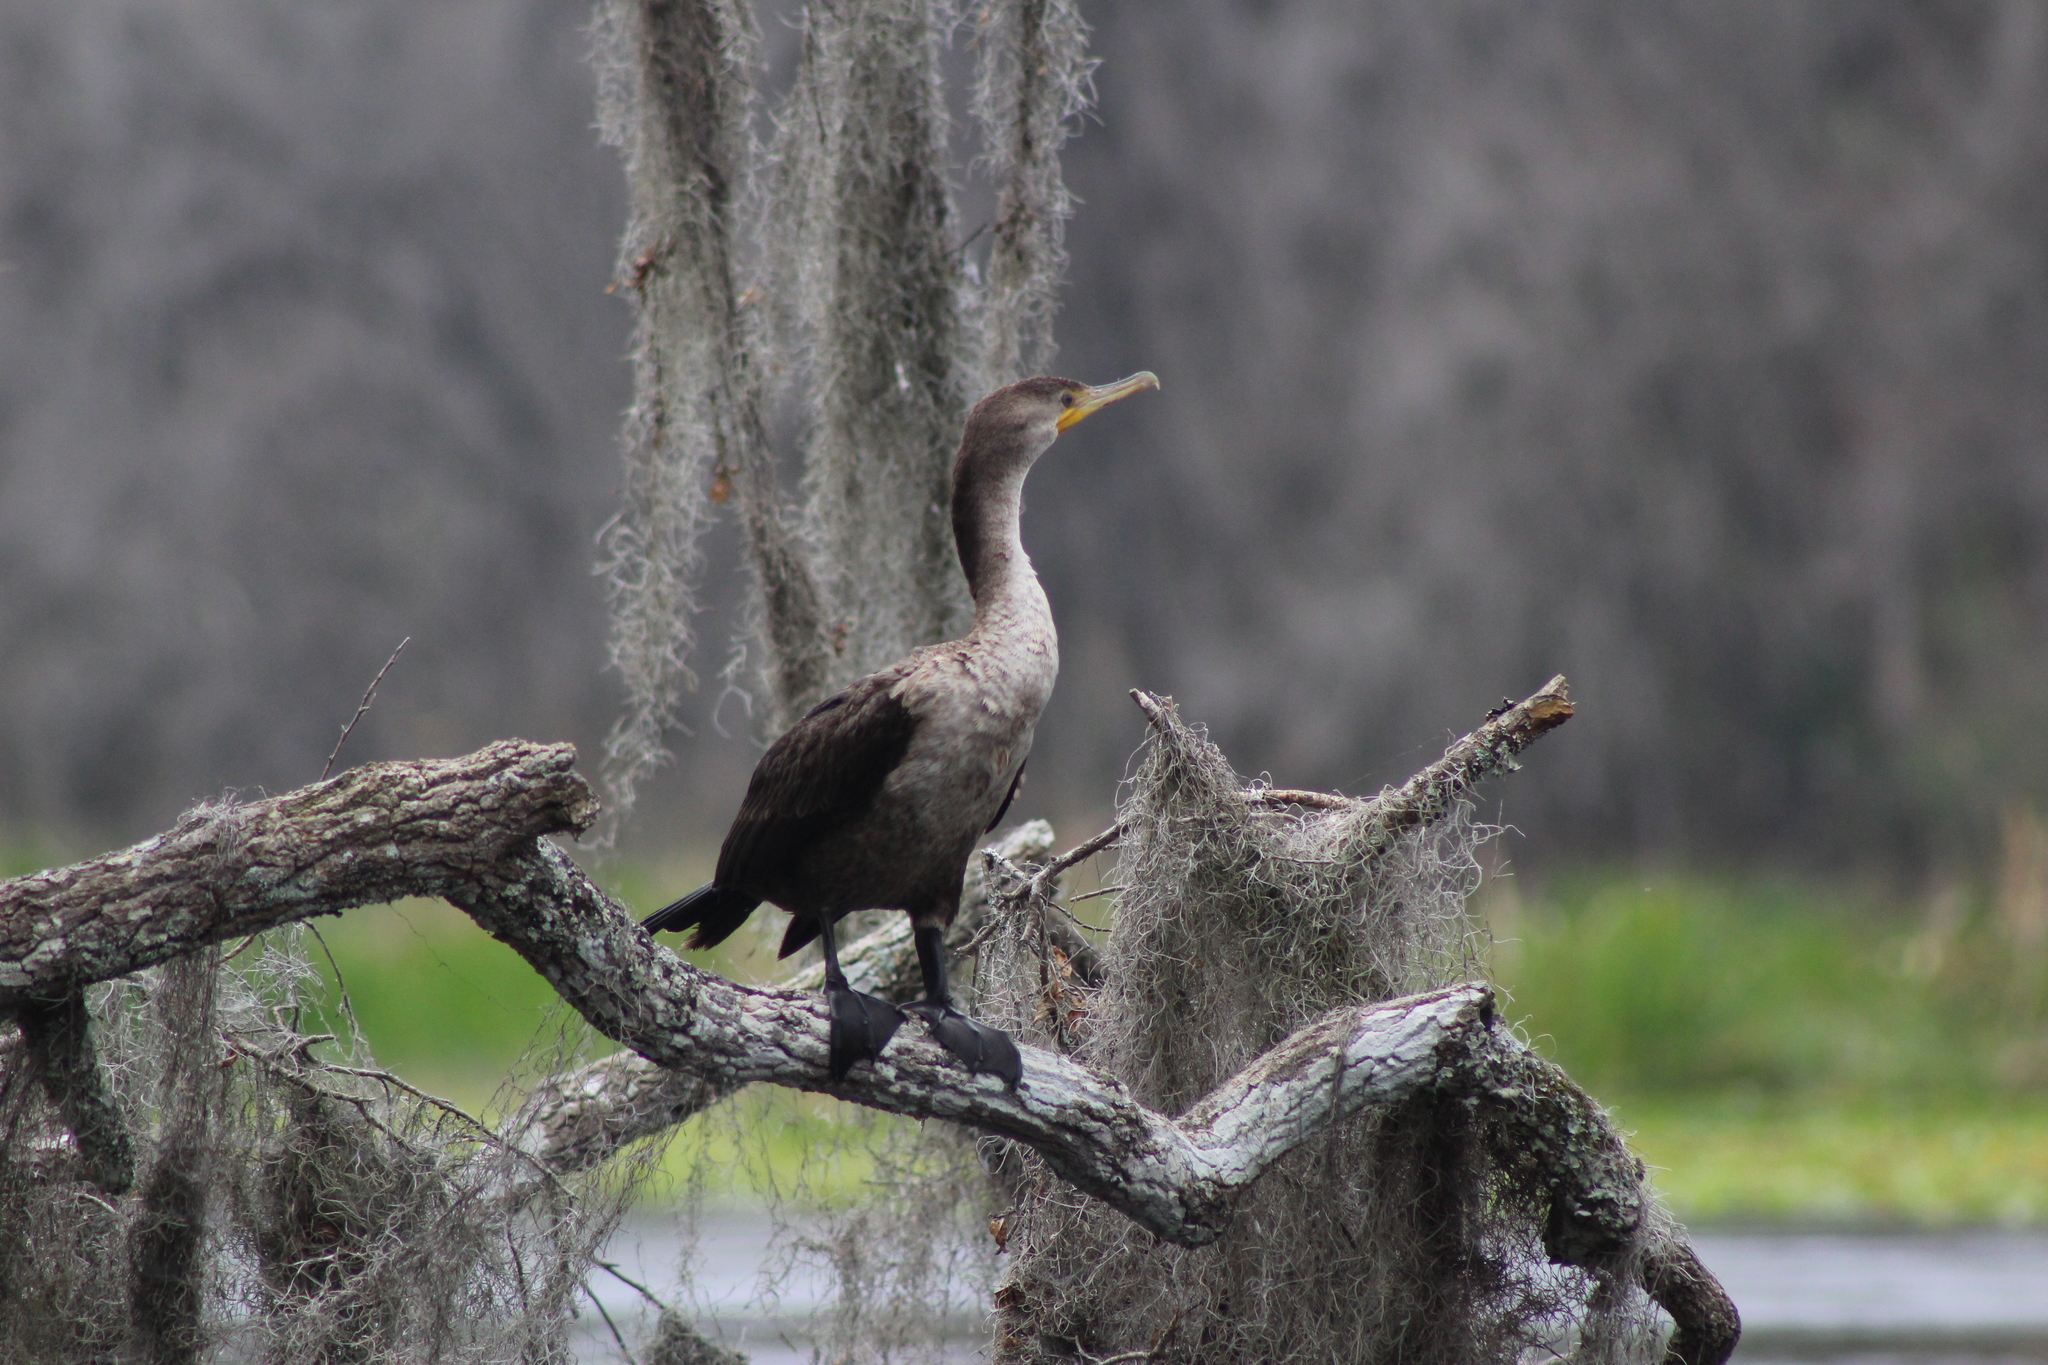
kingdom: Animalia
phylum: Chordata
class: Aves
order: Suliformes
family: Phalacrocoracidae
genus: Phalacrocorax
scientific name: Phalacrocorax auritus
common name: Double-crested cormorant
